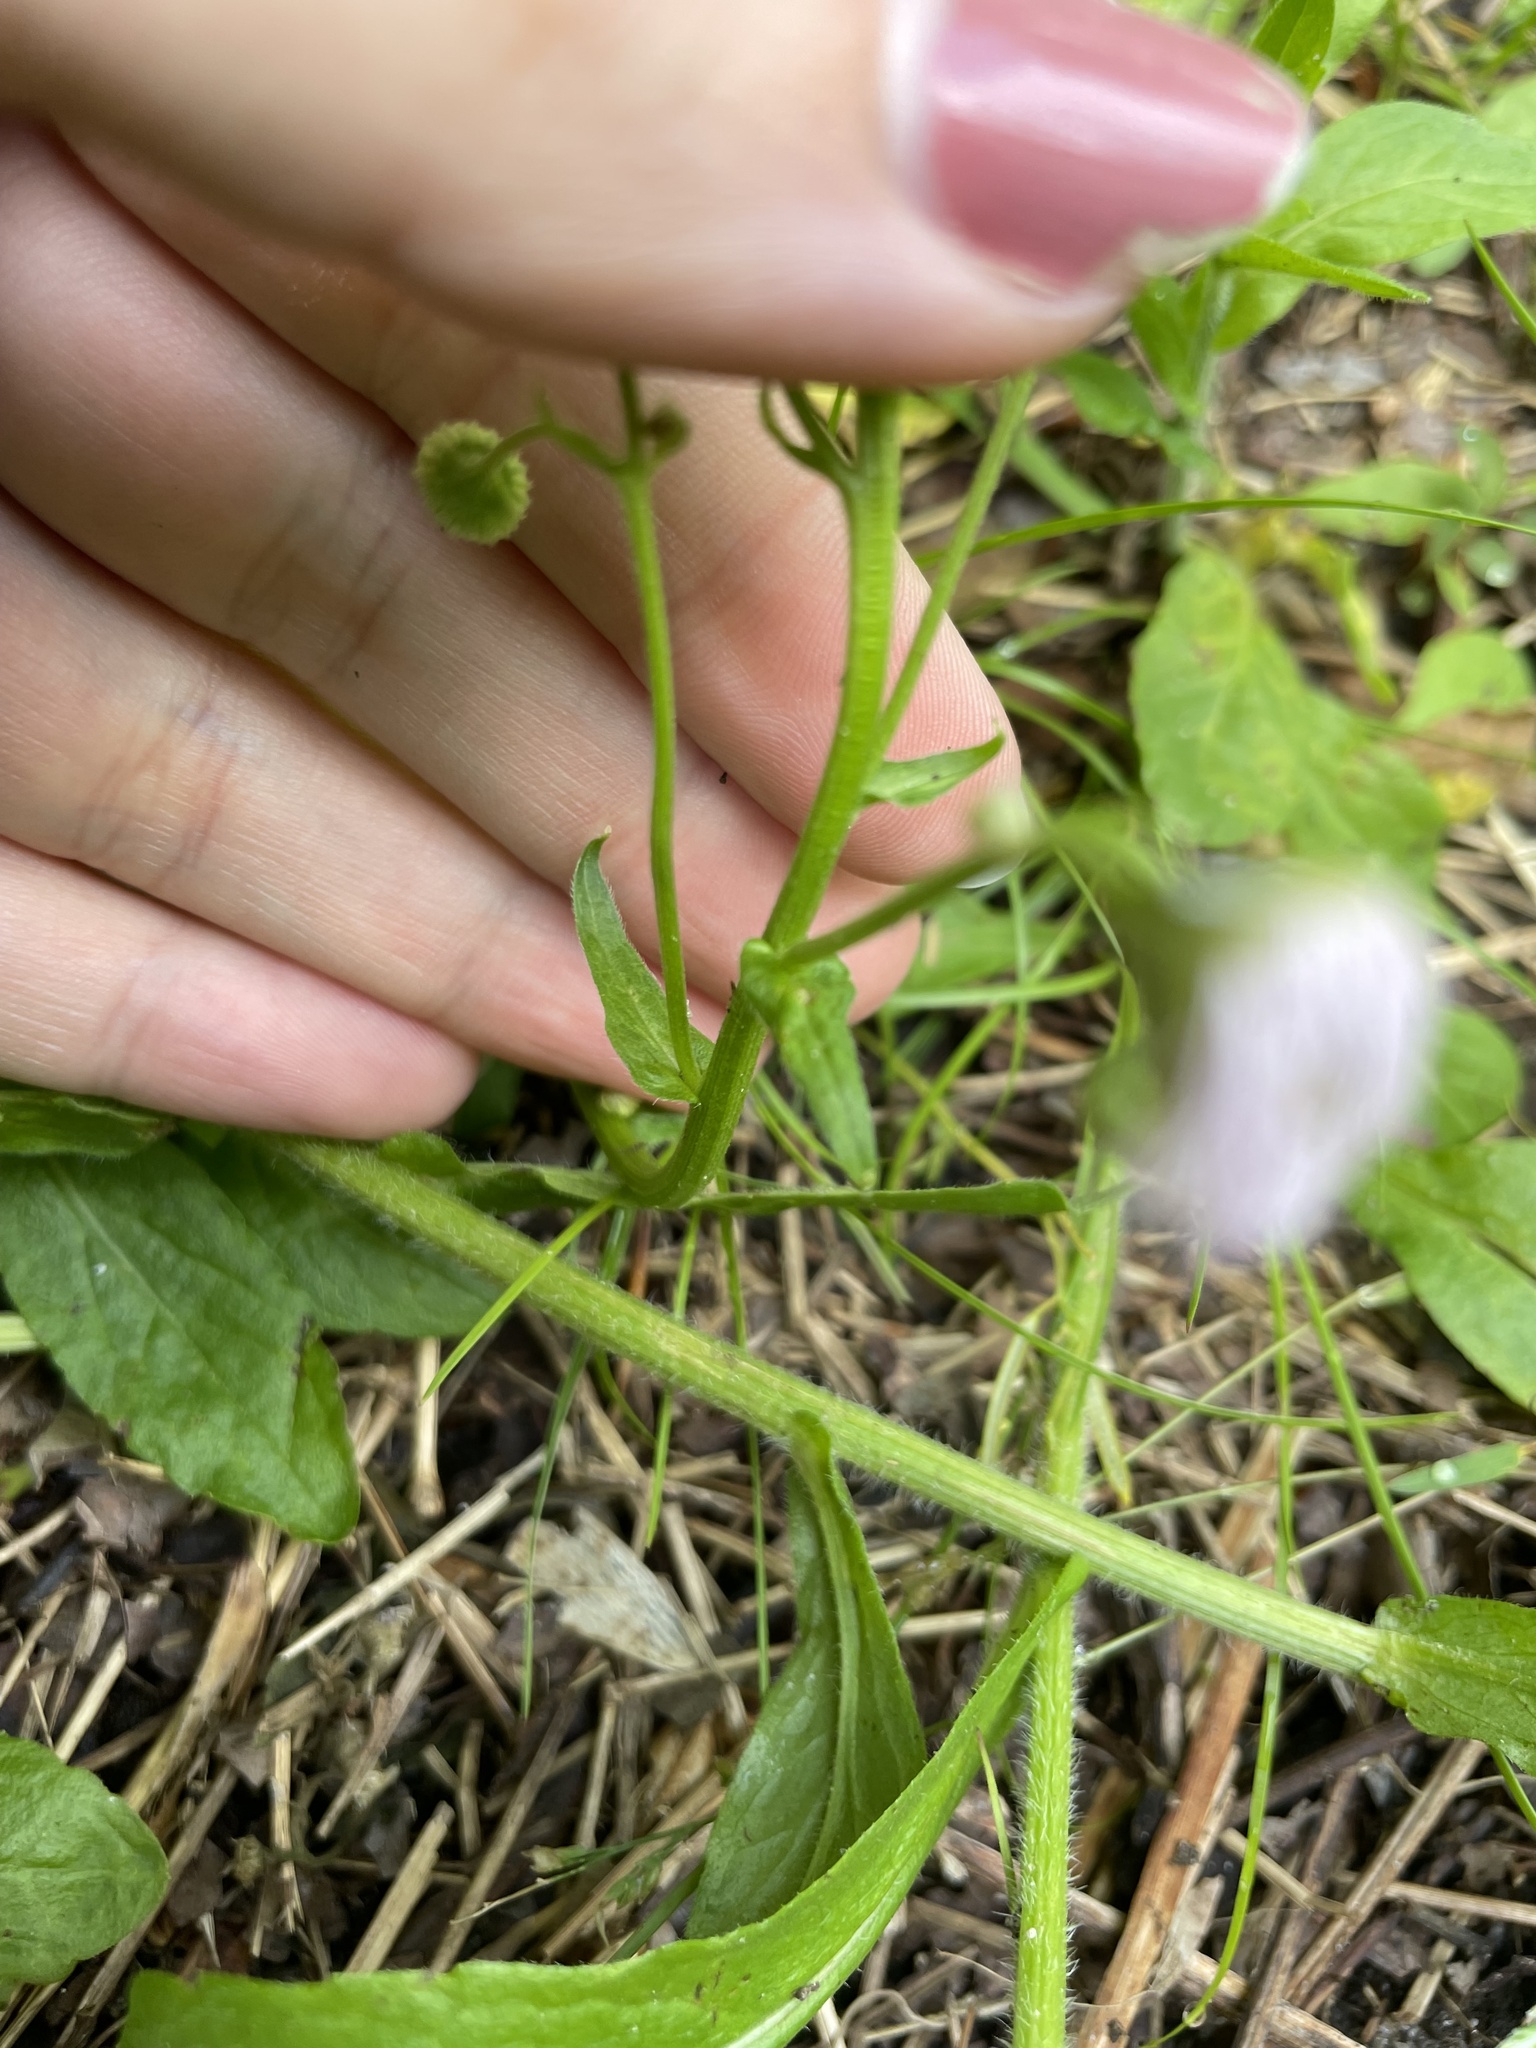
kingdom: Plantae
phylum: Tracheophyta
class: Magnoliopsida
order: Asterales
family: Asteraceae
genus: Erigeron
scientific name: Erigeron philadelphicus
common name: Robin's-plantain
